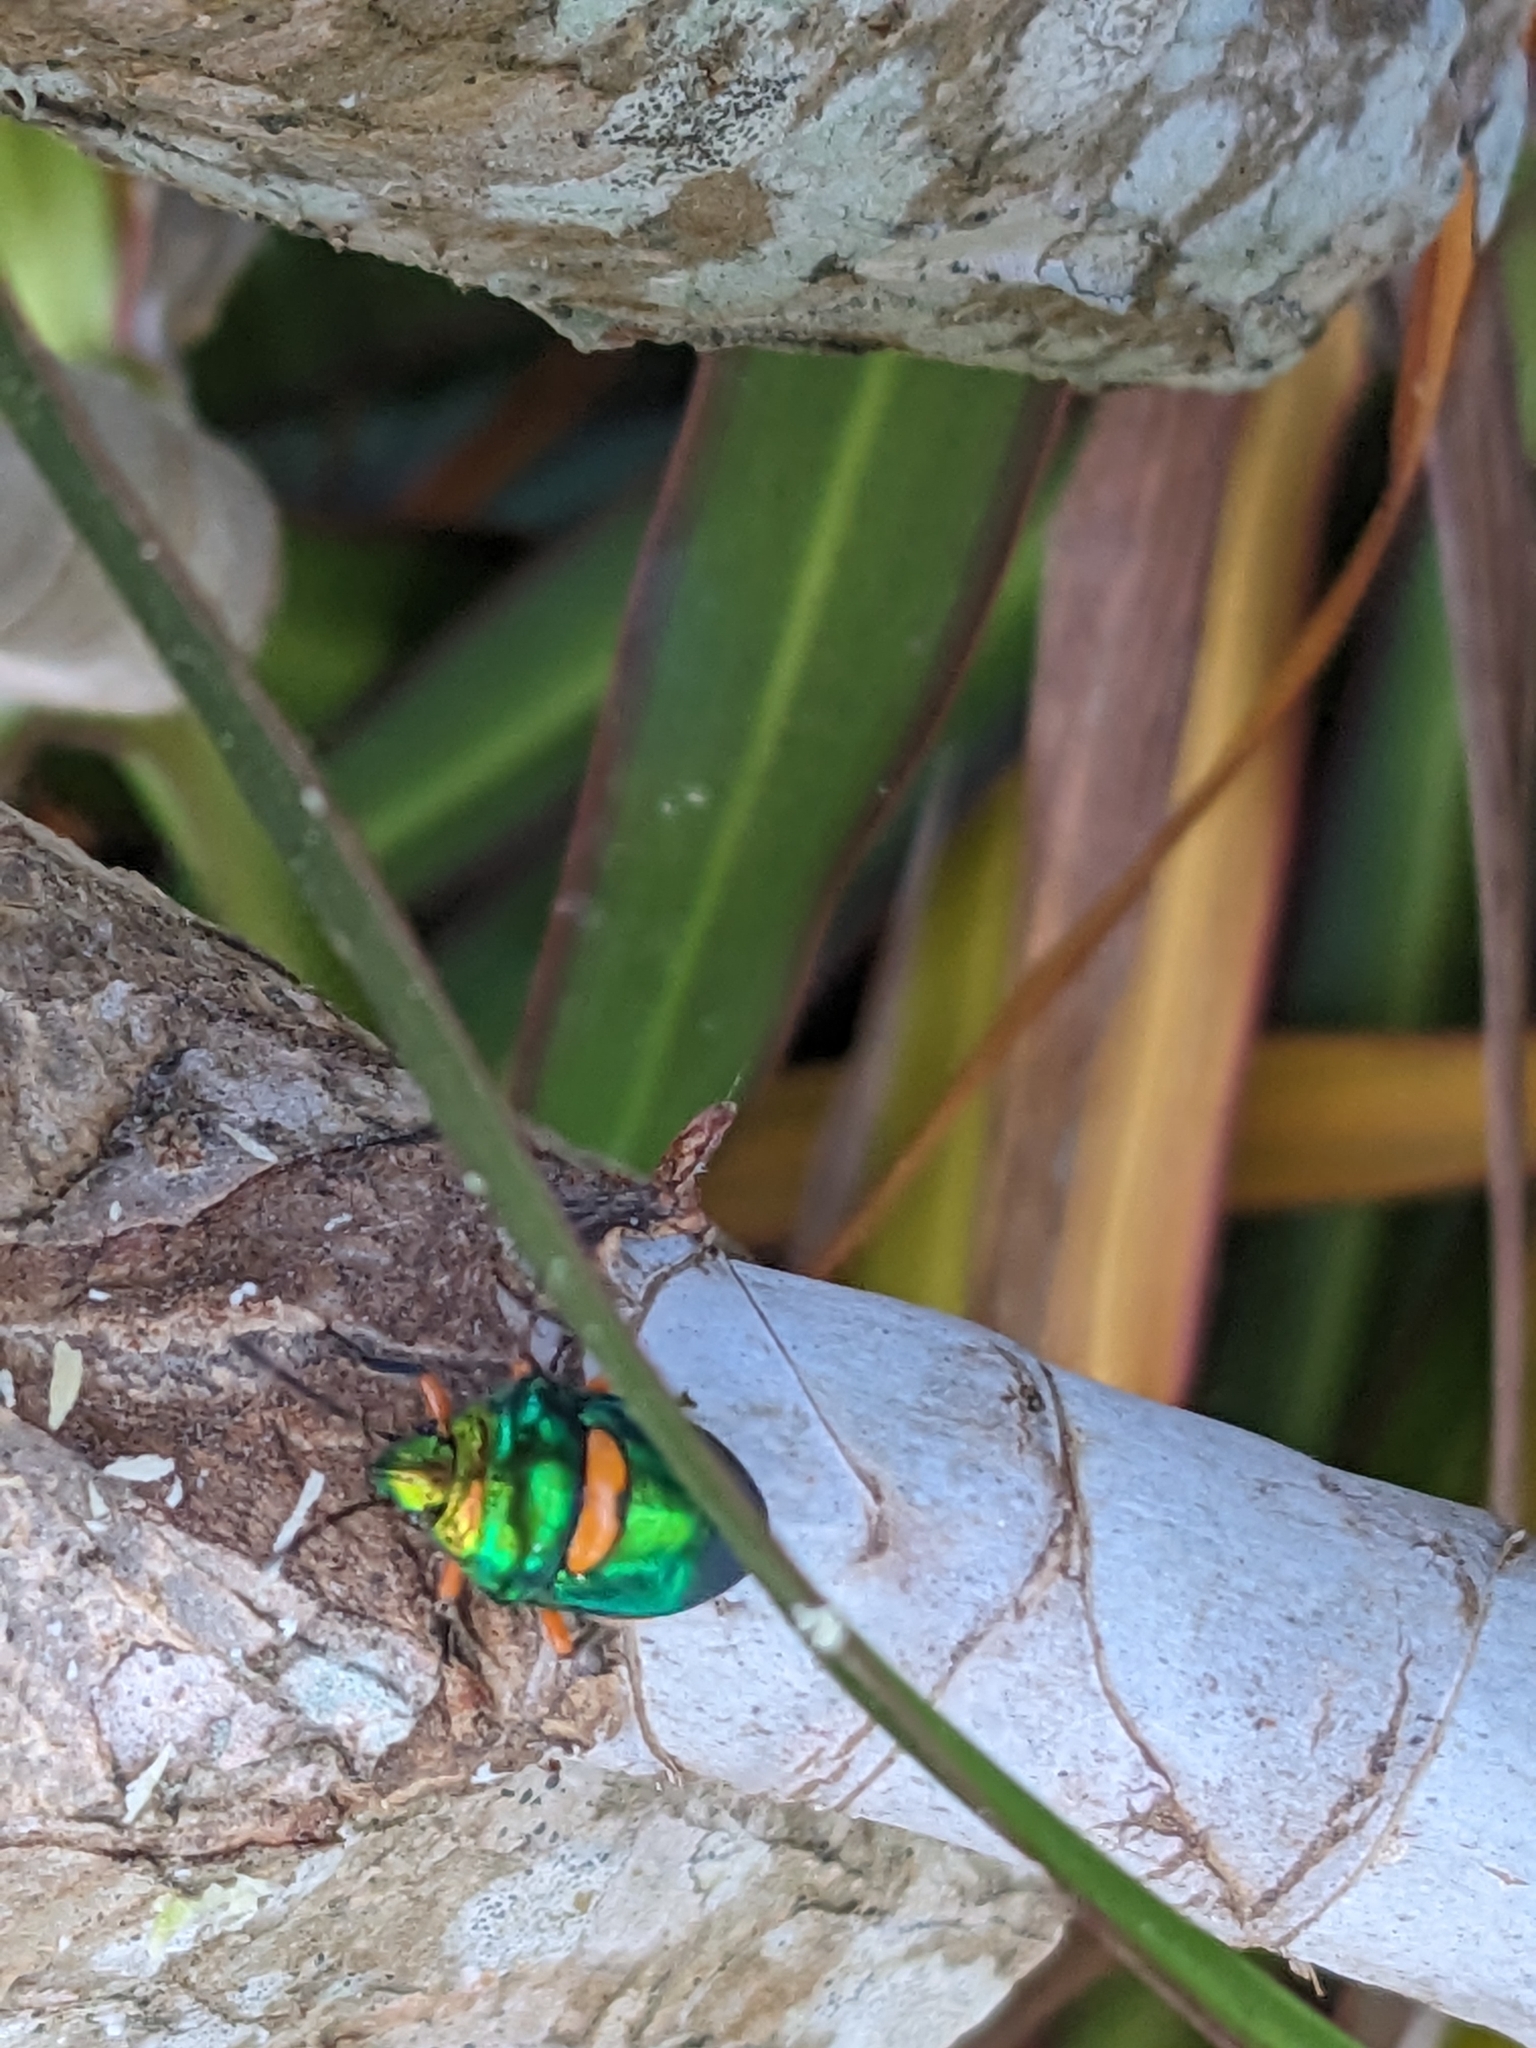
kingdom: Animalia
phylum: Arthropoda
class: Insecta
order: Hemiptera
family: Scutelleridae
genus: Lampromicra
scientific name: Lampromicra senator
